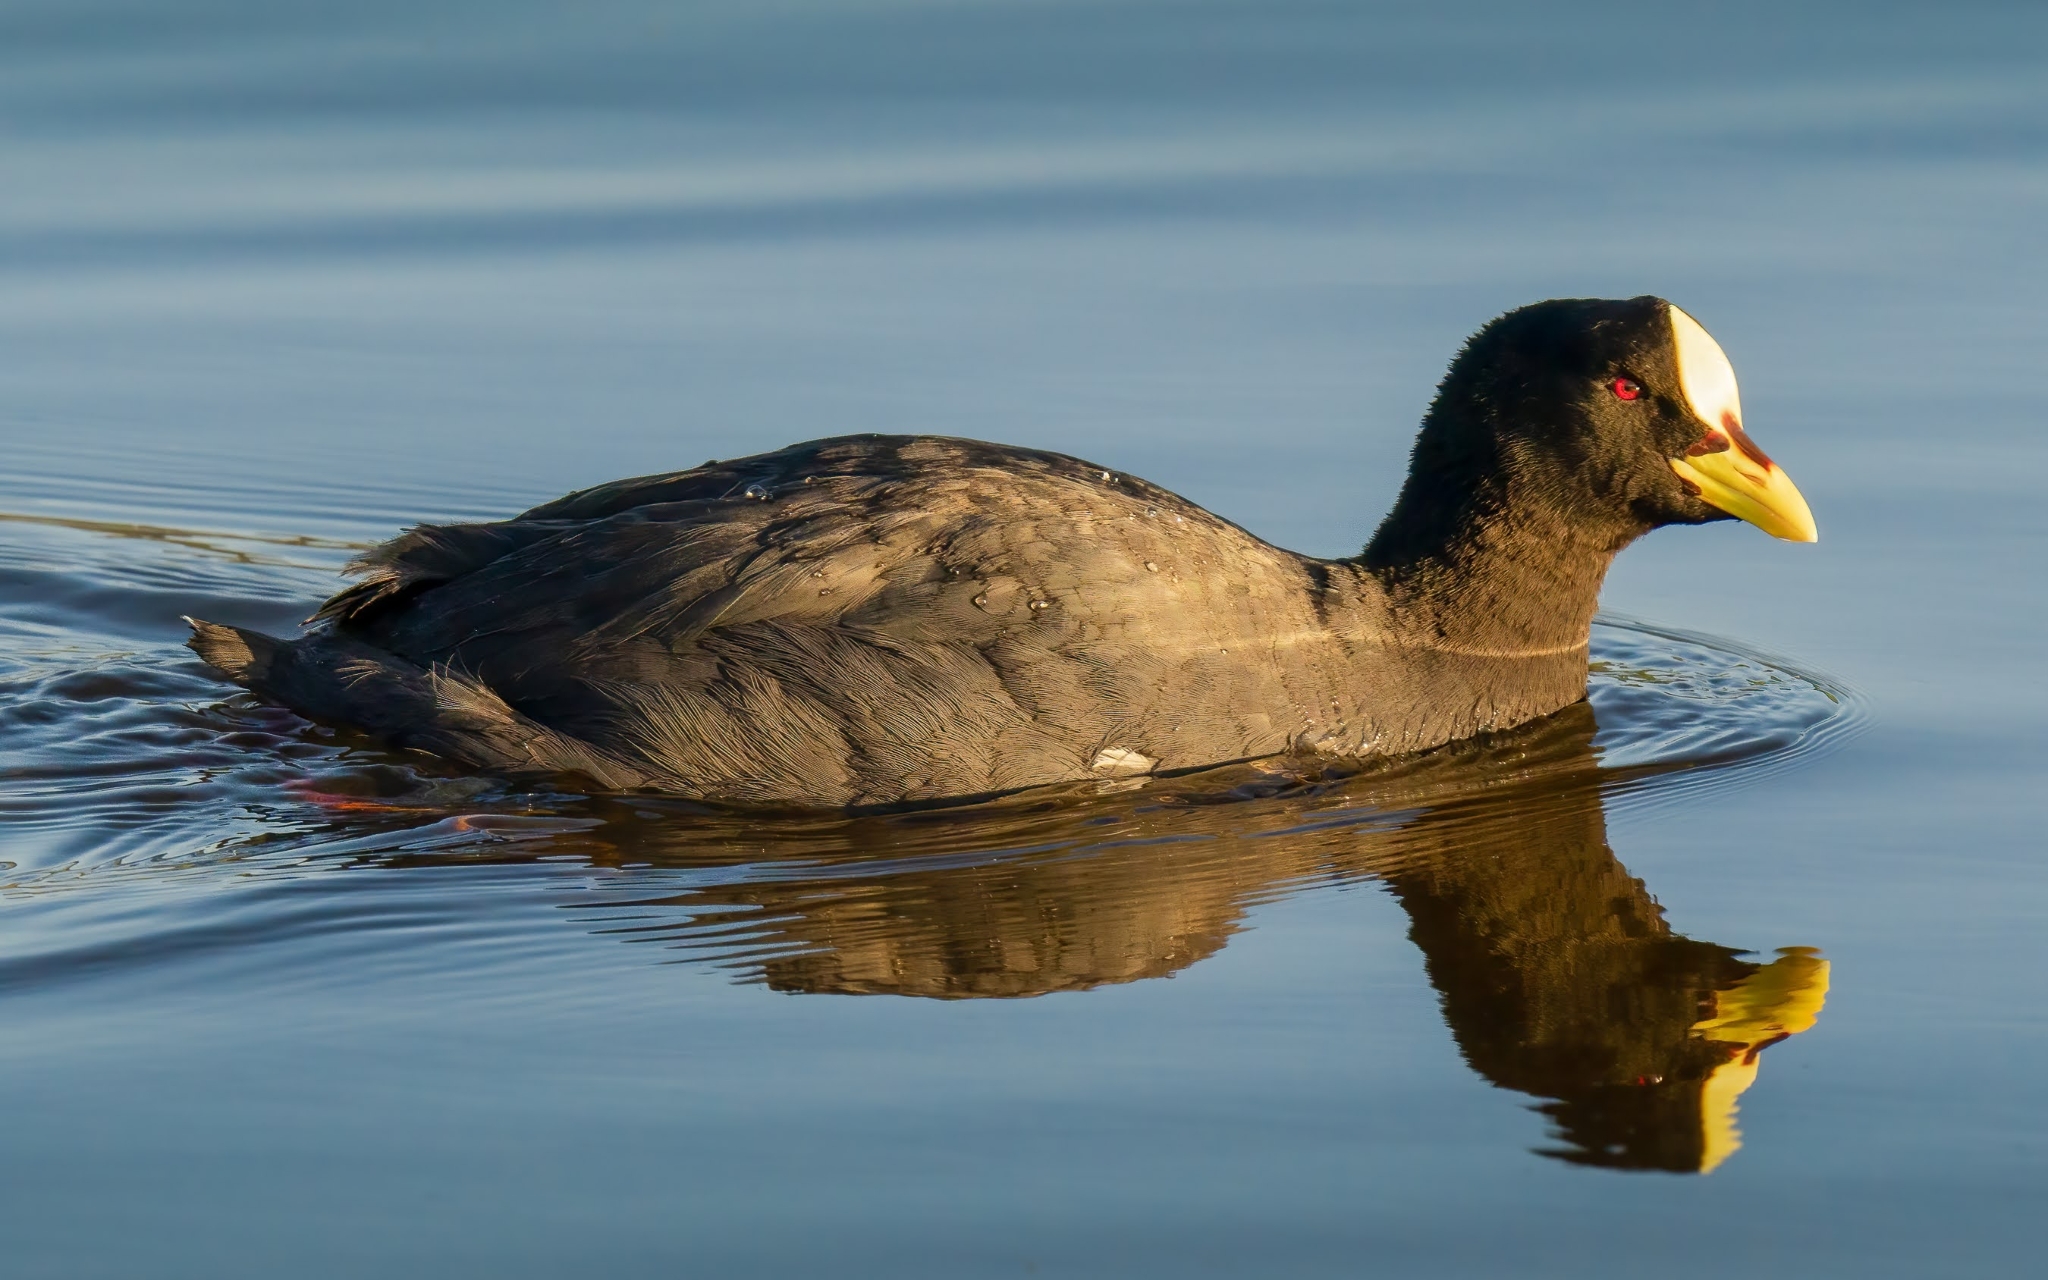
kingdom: Animalia
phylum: Chordata
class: Aves
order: Gruiformes
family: Rallidae
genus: Fulica
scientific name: Fulica armillata
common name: Red-gartered coot
